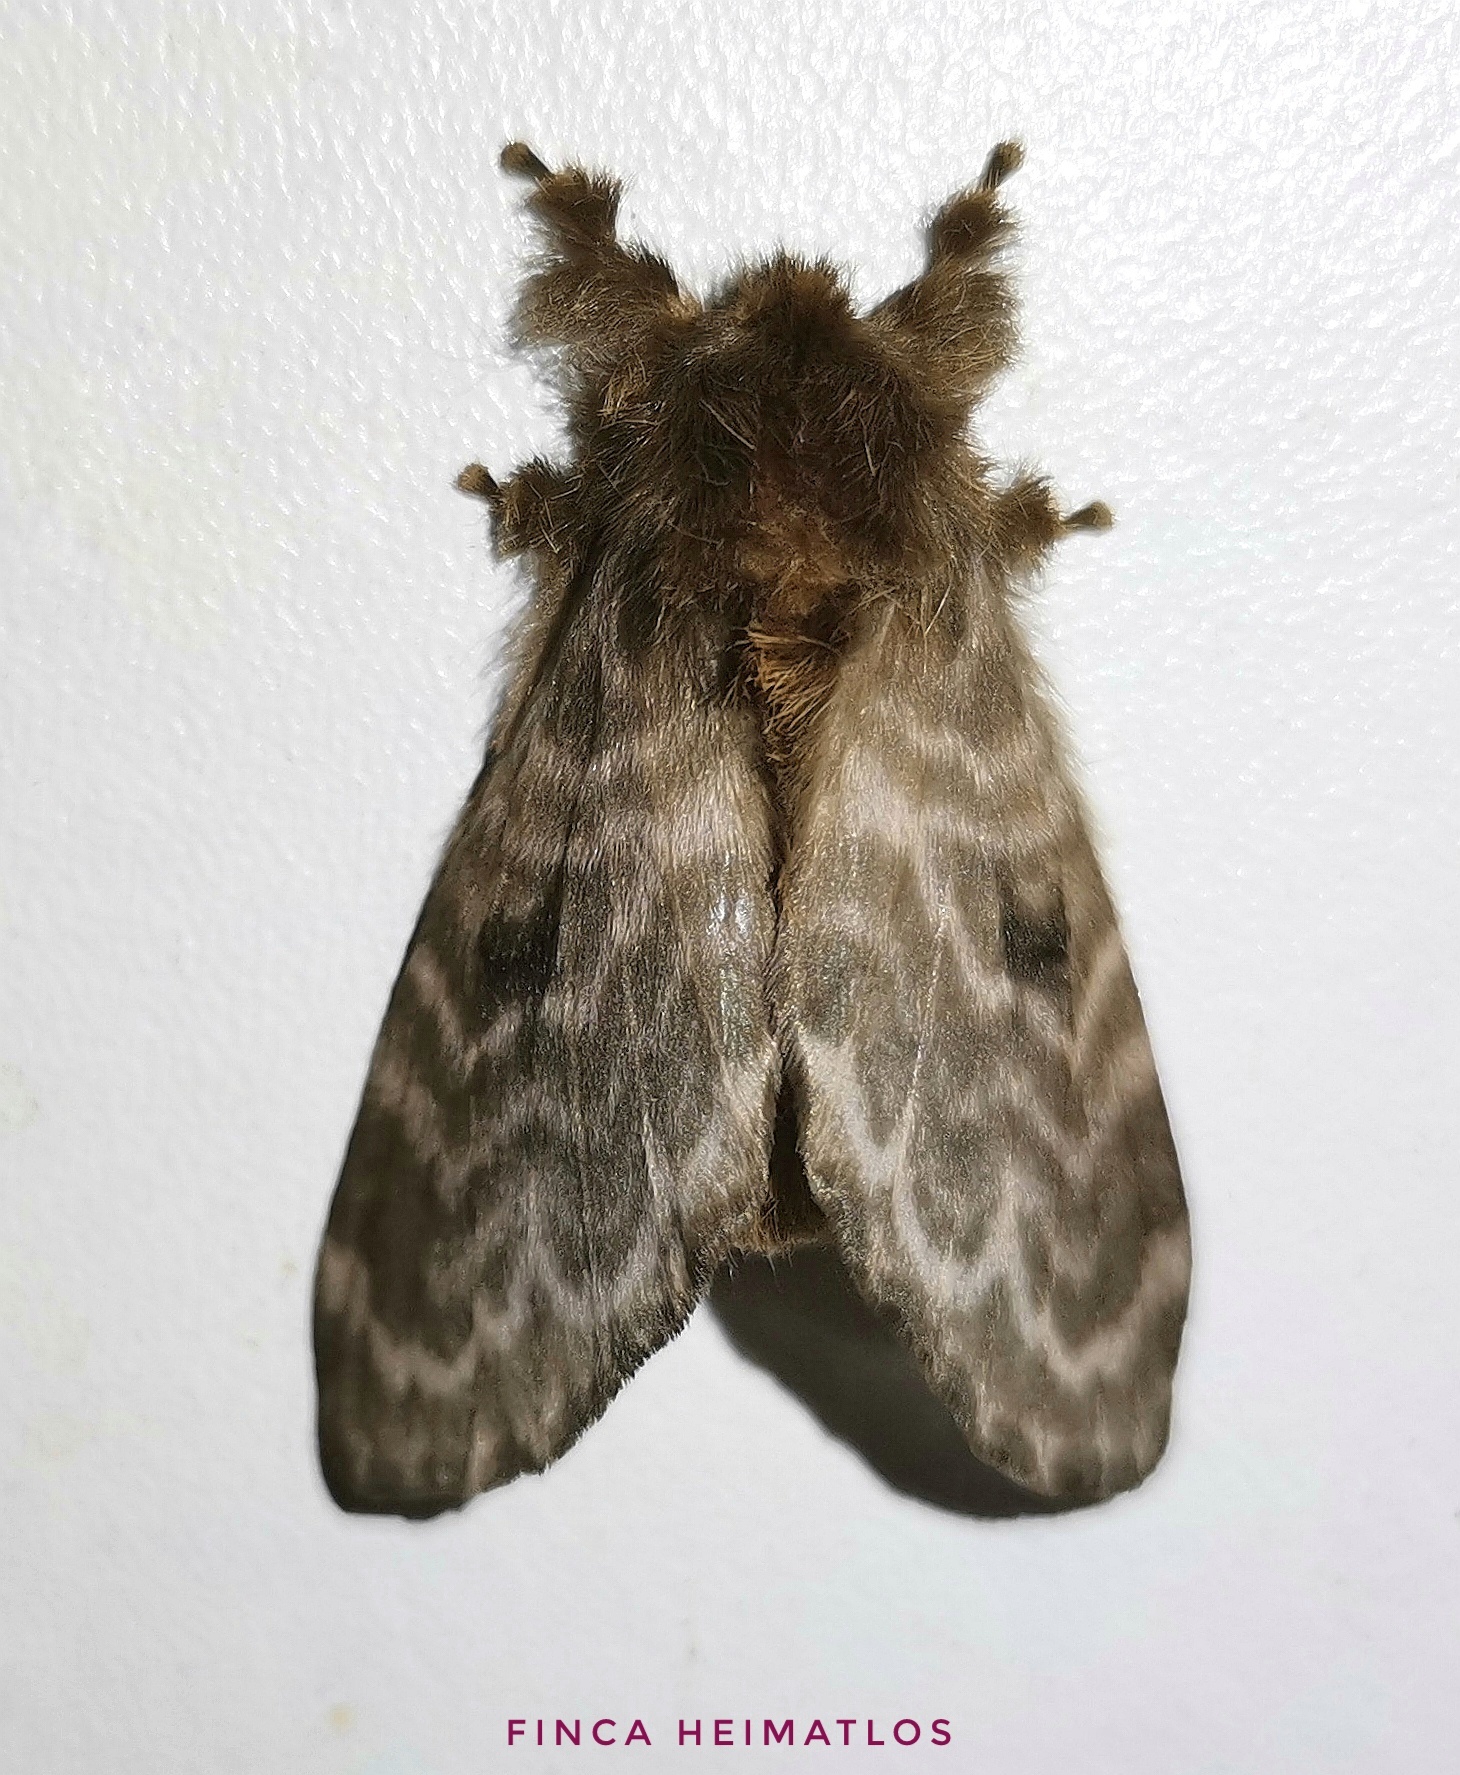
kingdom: Animalia
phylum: Arthropoda
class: Insecta
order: Lepidoptera
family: Lasiocampidae
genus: Tytocha
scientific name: Tytocha lineata
